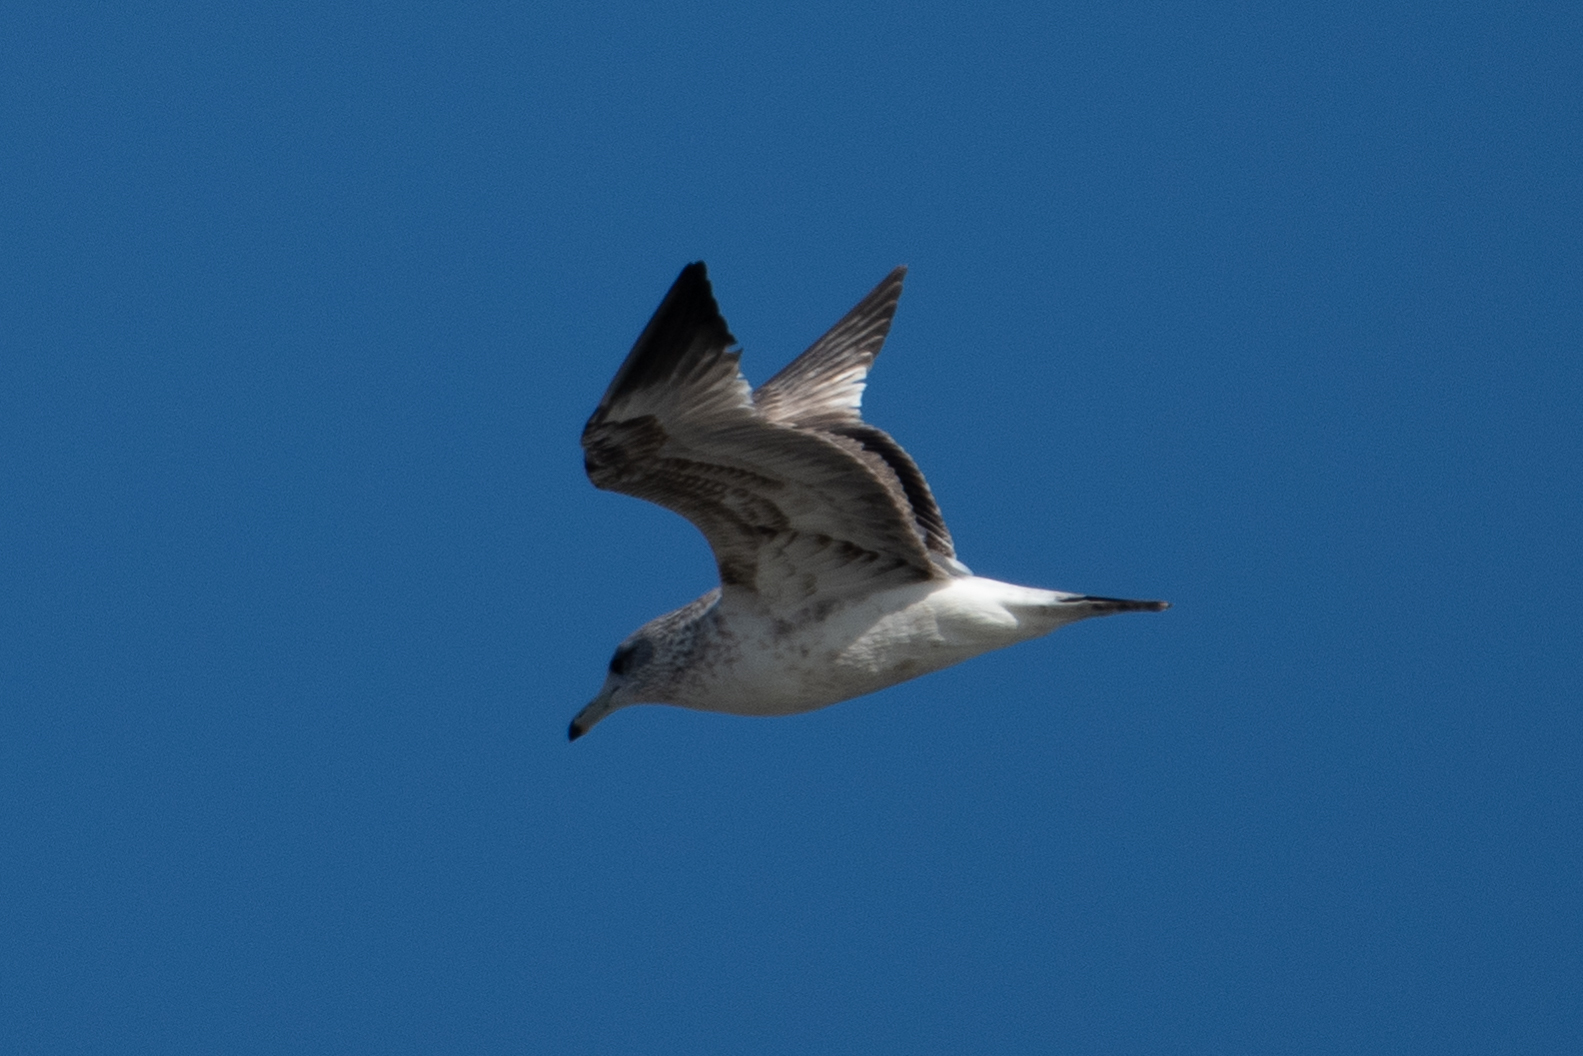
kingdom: Animalia
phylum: Chordata
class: Aves
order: Charadriiformes
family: Laridae
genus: Larus
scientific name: Larus californicus
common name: California gull
